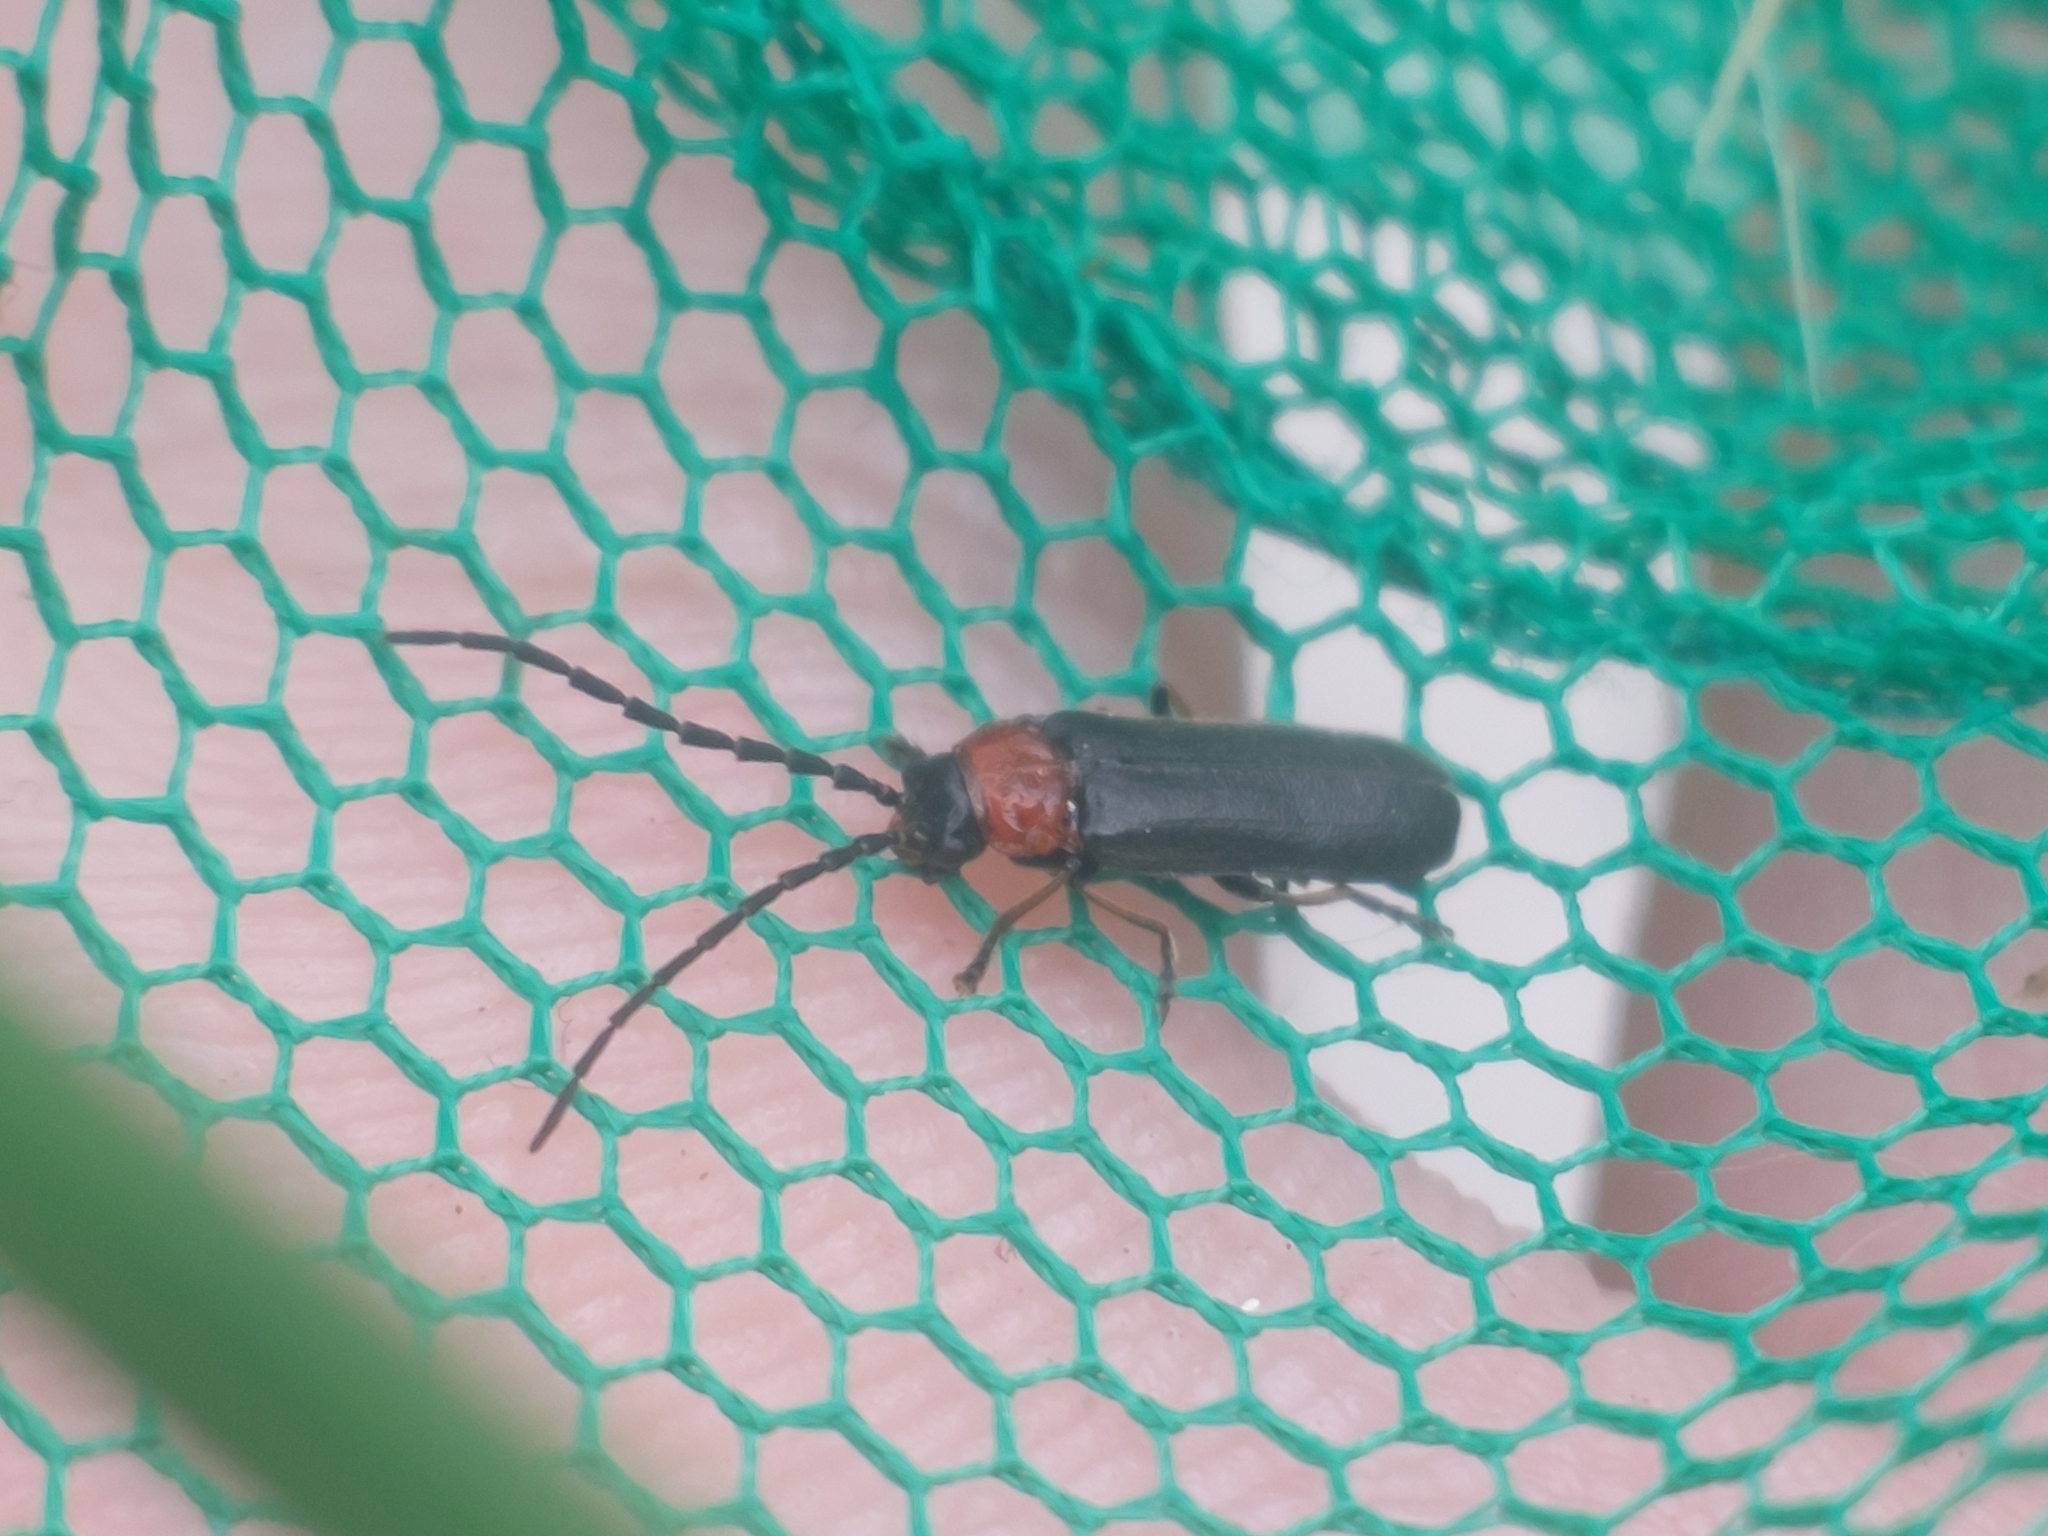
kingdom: Animalia
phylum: Arthropoda
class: Insecta
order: Coleoptera
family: Cantharidae
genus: Crudosilis
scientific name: Crudosilis ruficollis
